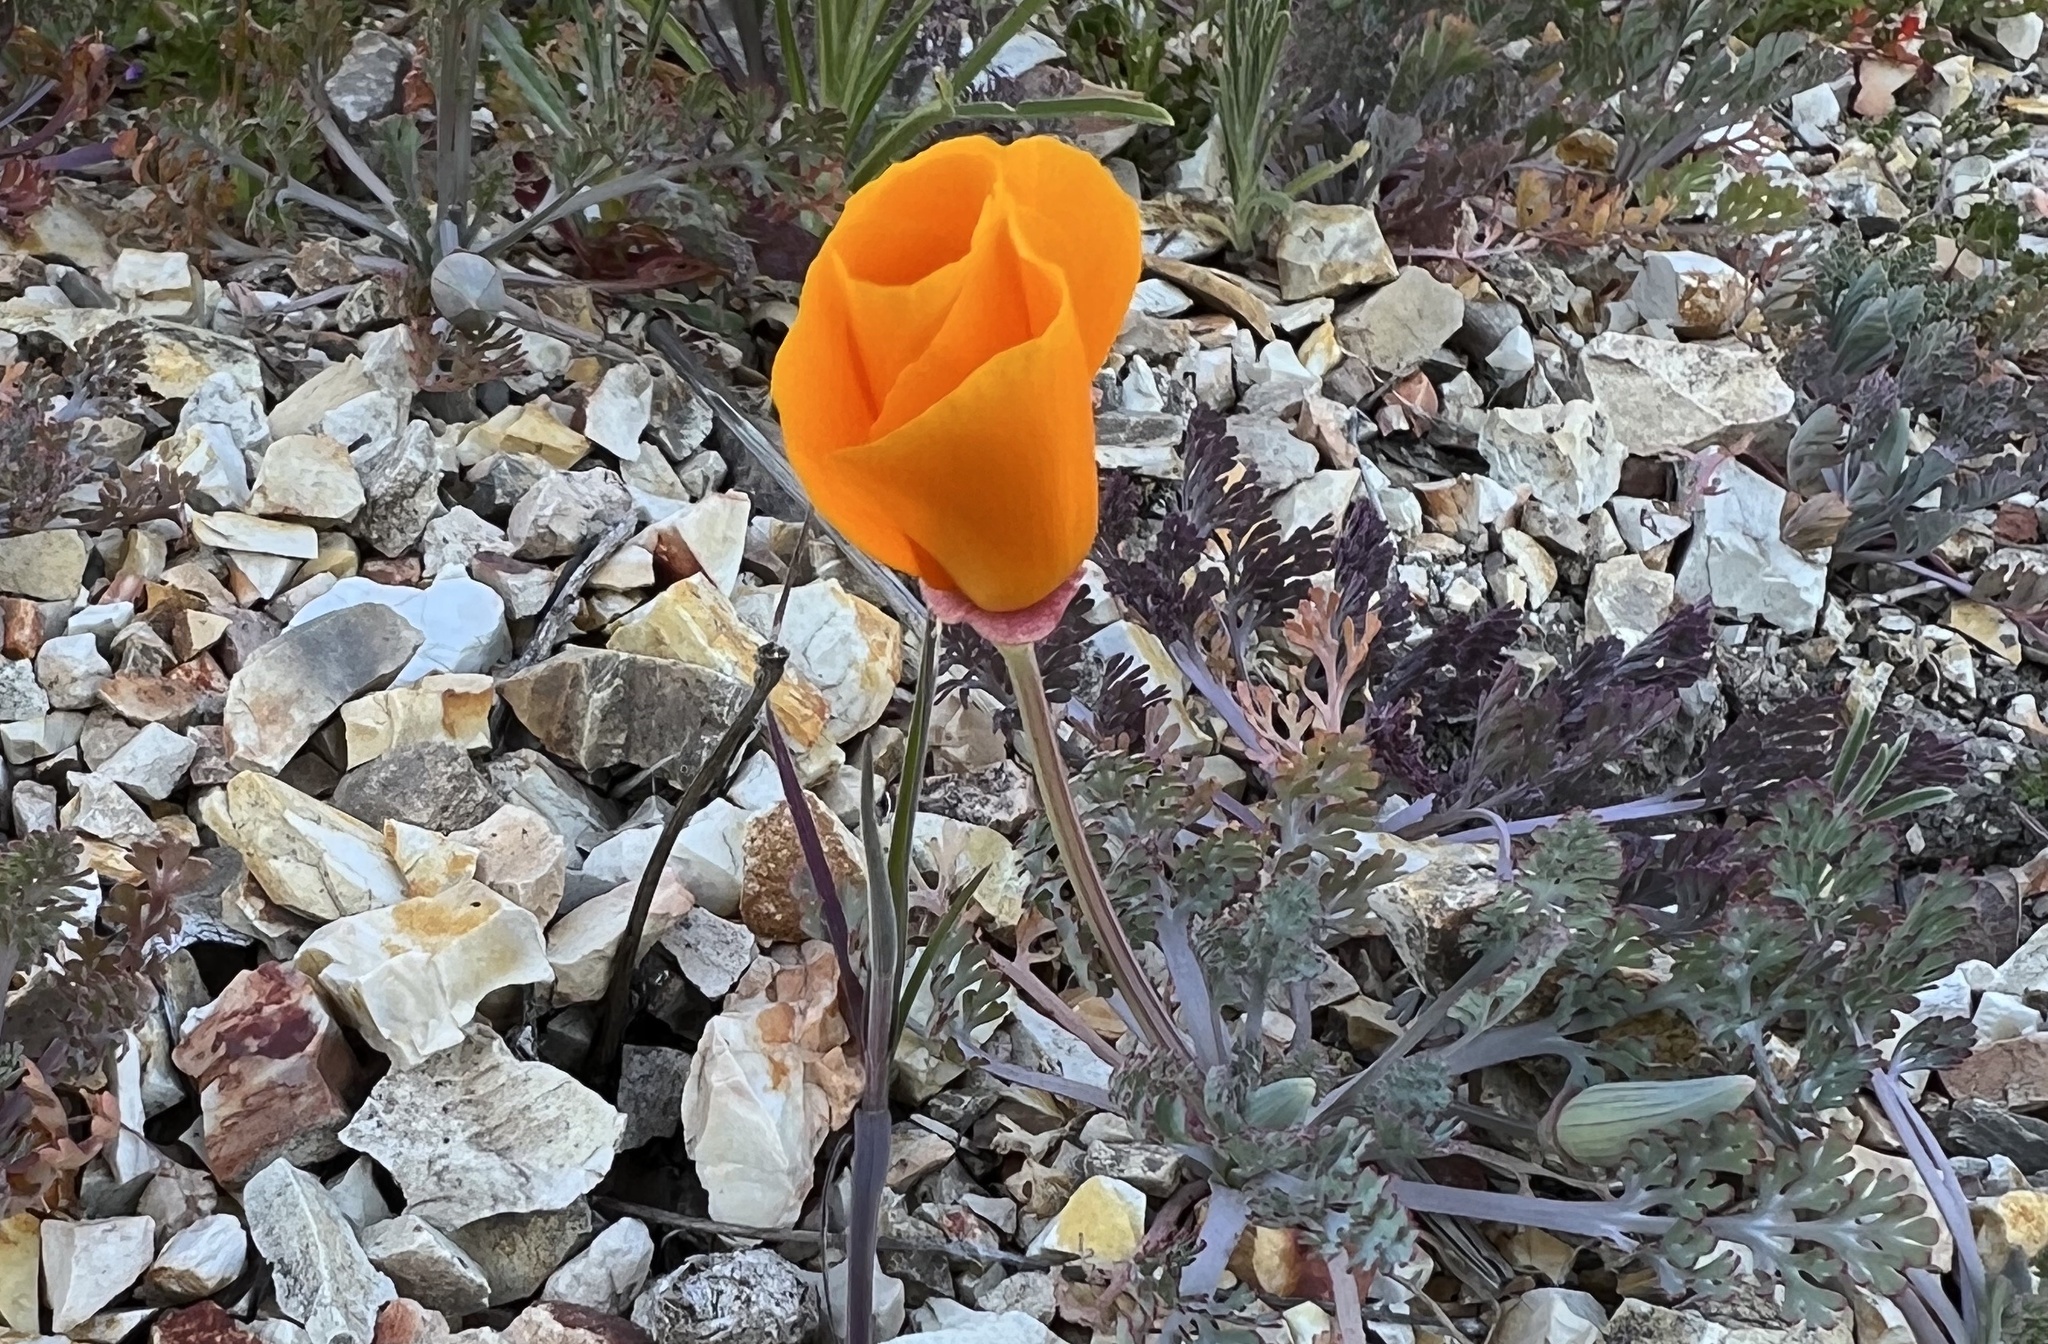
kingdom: Plantae
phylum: Tracheophyta
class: Magnoliopsida
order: Ranunculales
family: Papaveraceae
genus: Eschscholzia
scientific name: Eschscholzia californica
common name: California poppy
